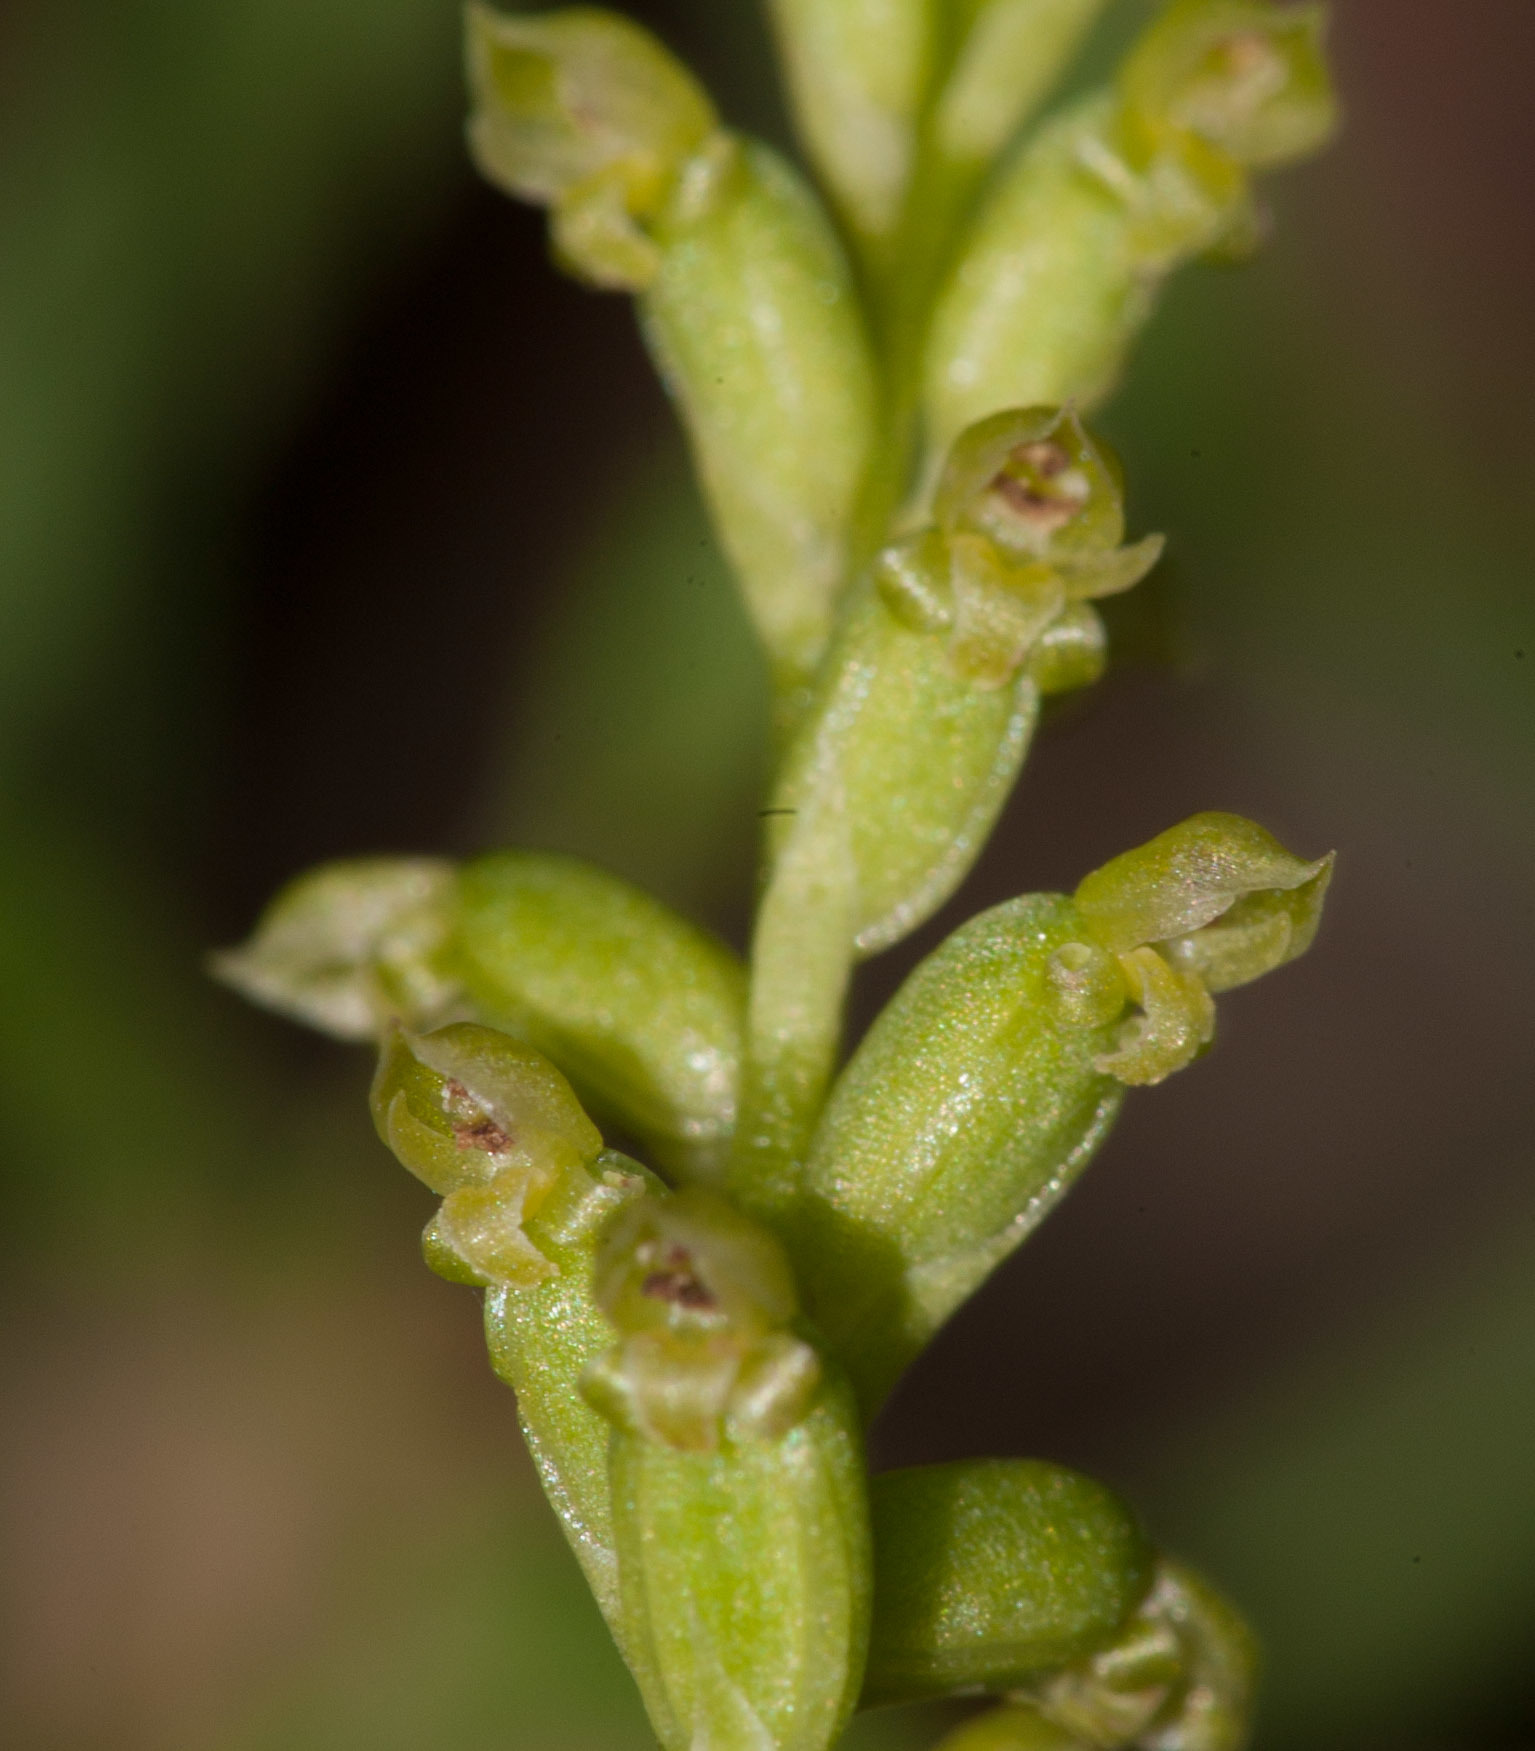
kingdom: Plantae
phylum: Tracheophyta
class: Liliopsida
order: Asparagales
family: Orchidaceae
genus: Microtis
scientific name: Microtis parviflora
